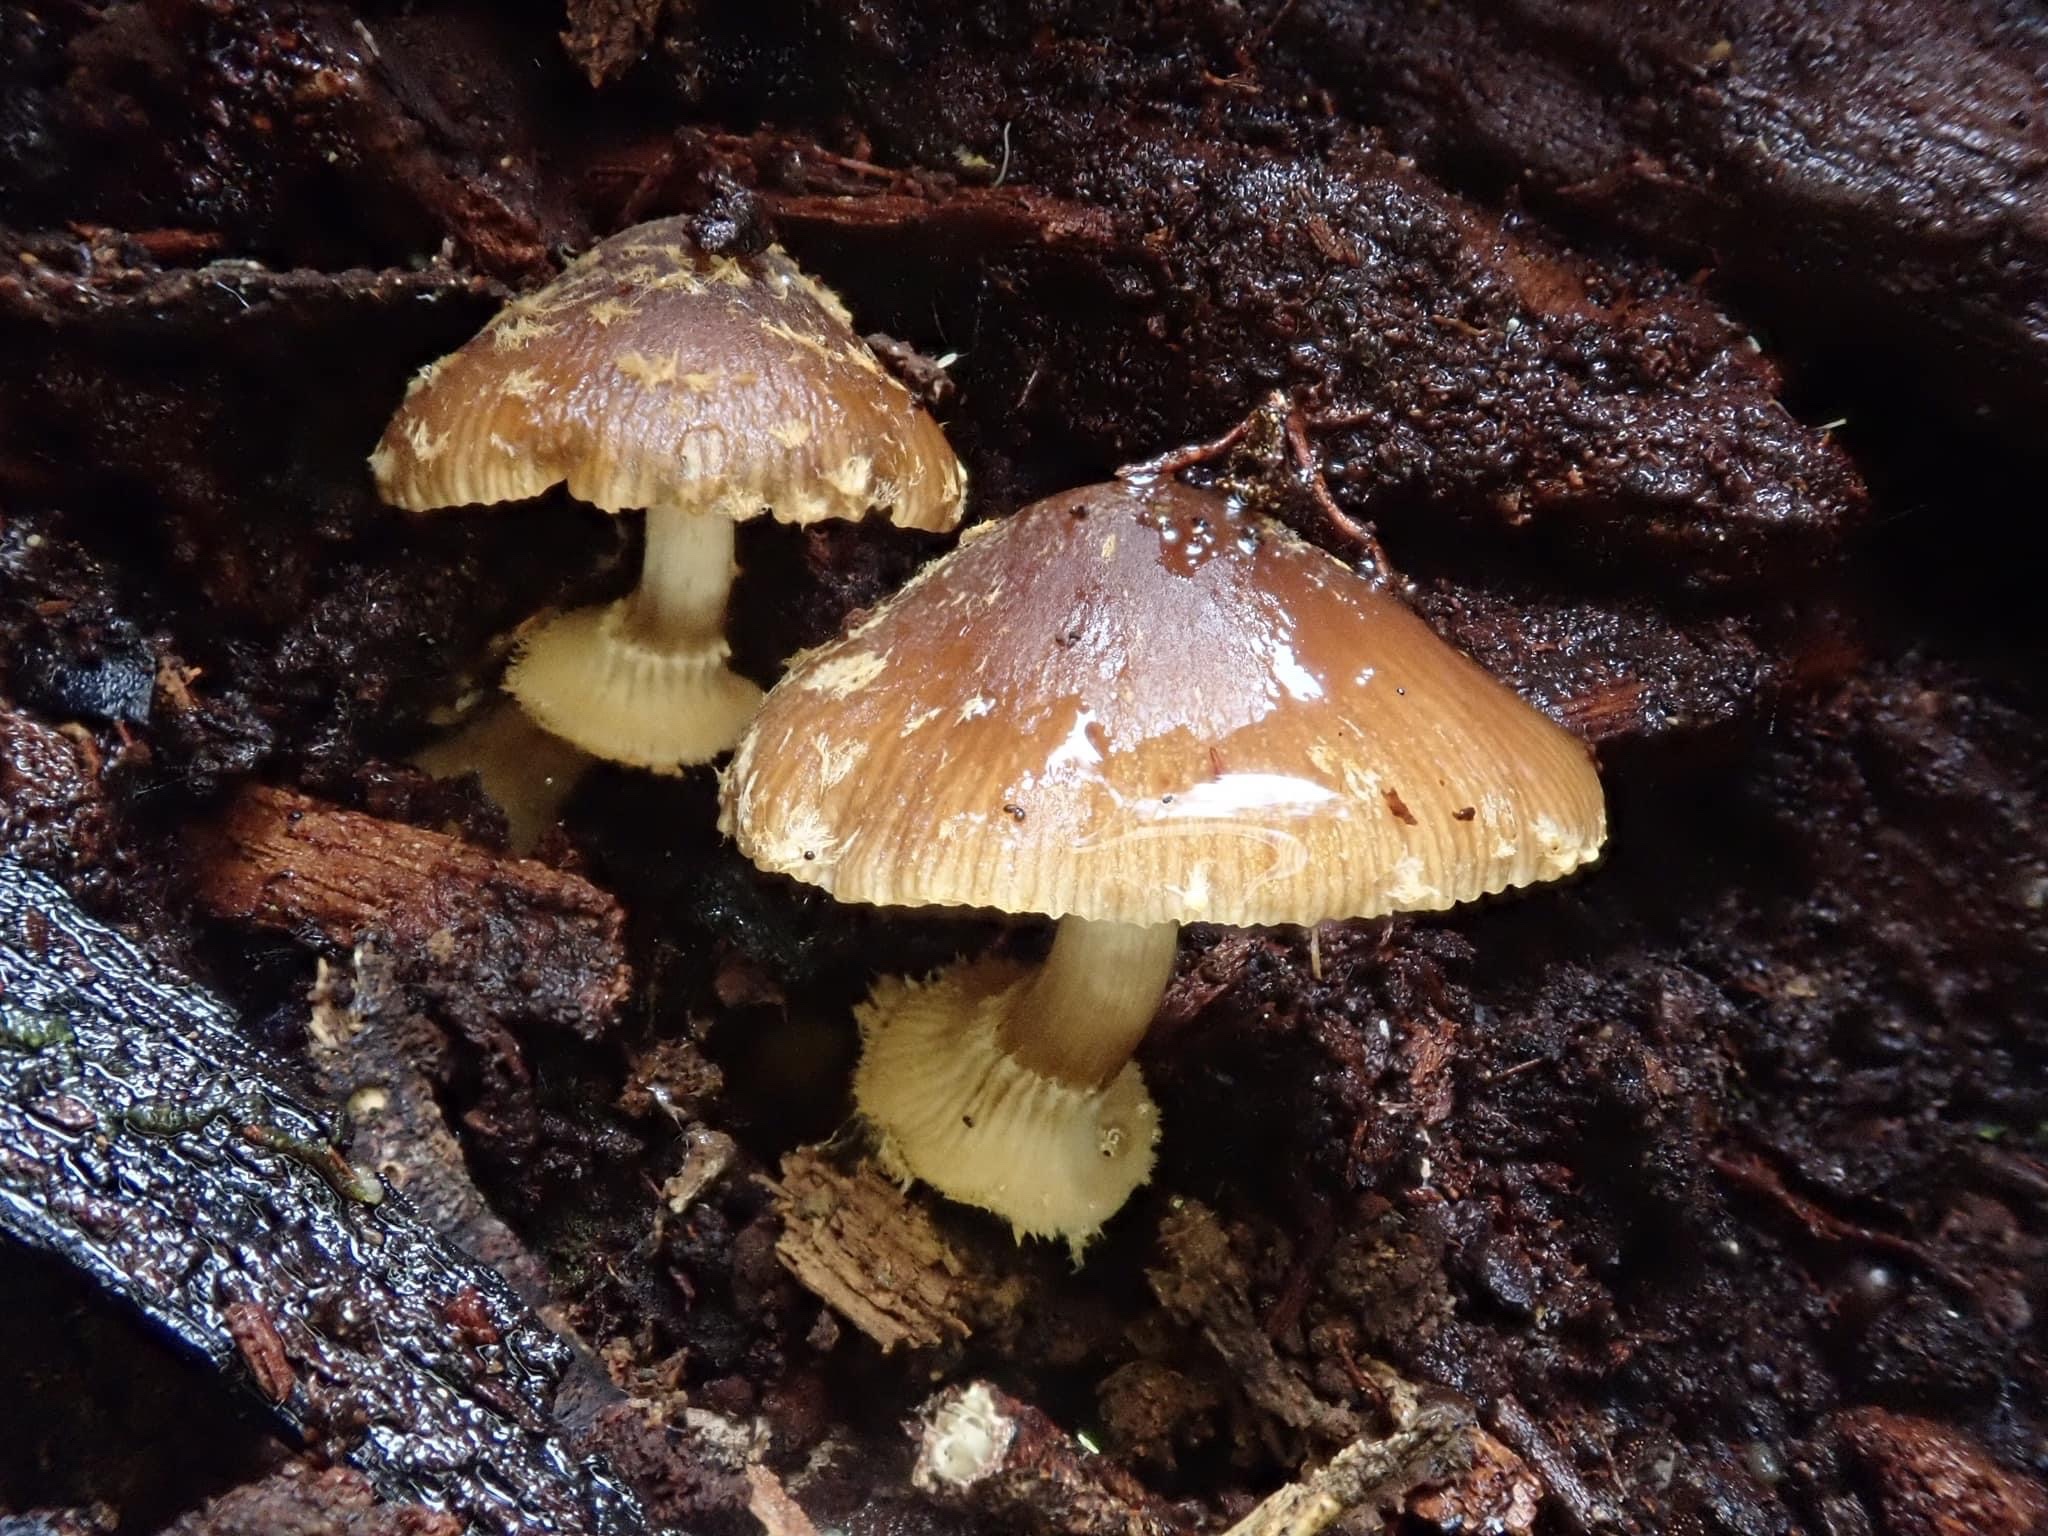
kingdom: Fungi
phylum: Basidiomycota
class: Agaricomycetes
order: Agaricales
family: Bolbitiaceae
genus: Descolea
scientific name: Descolea recedens
